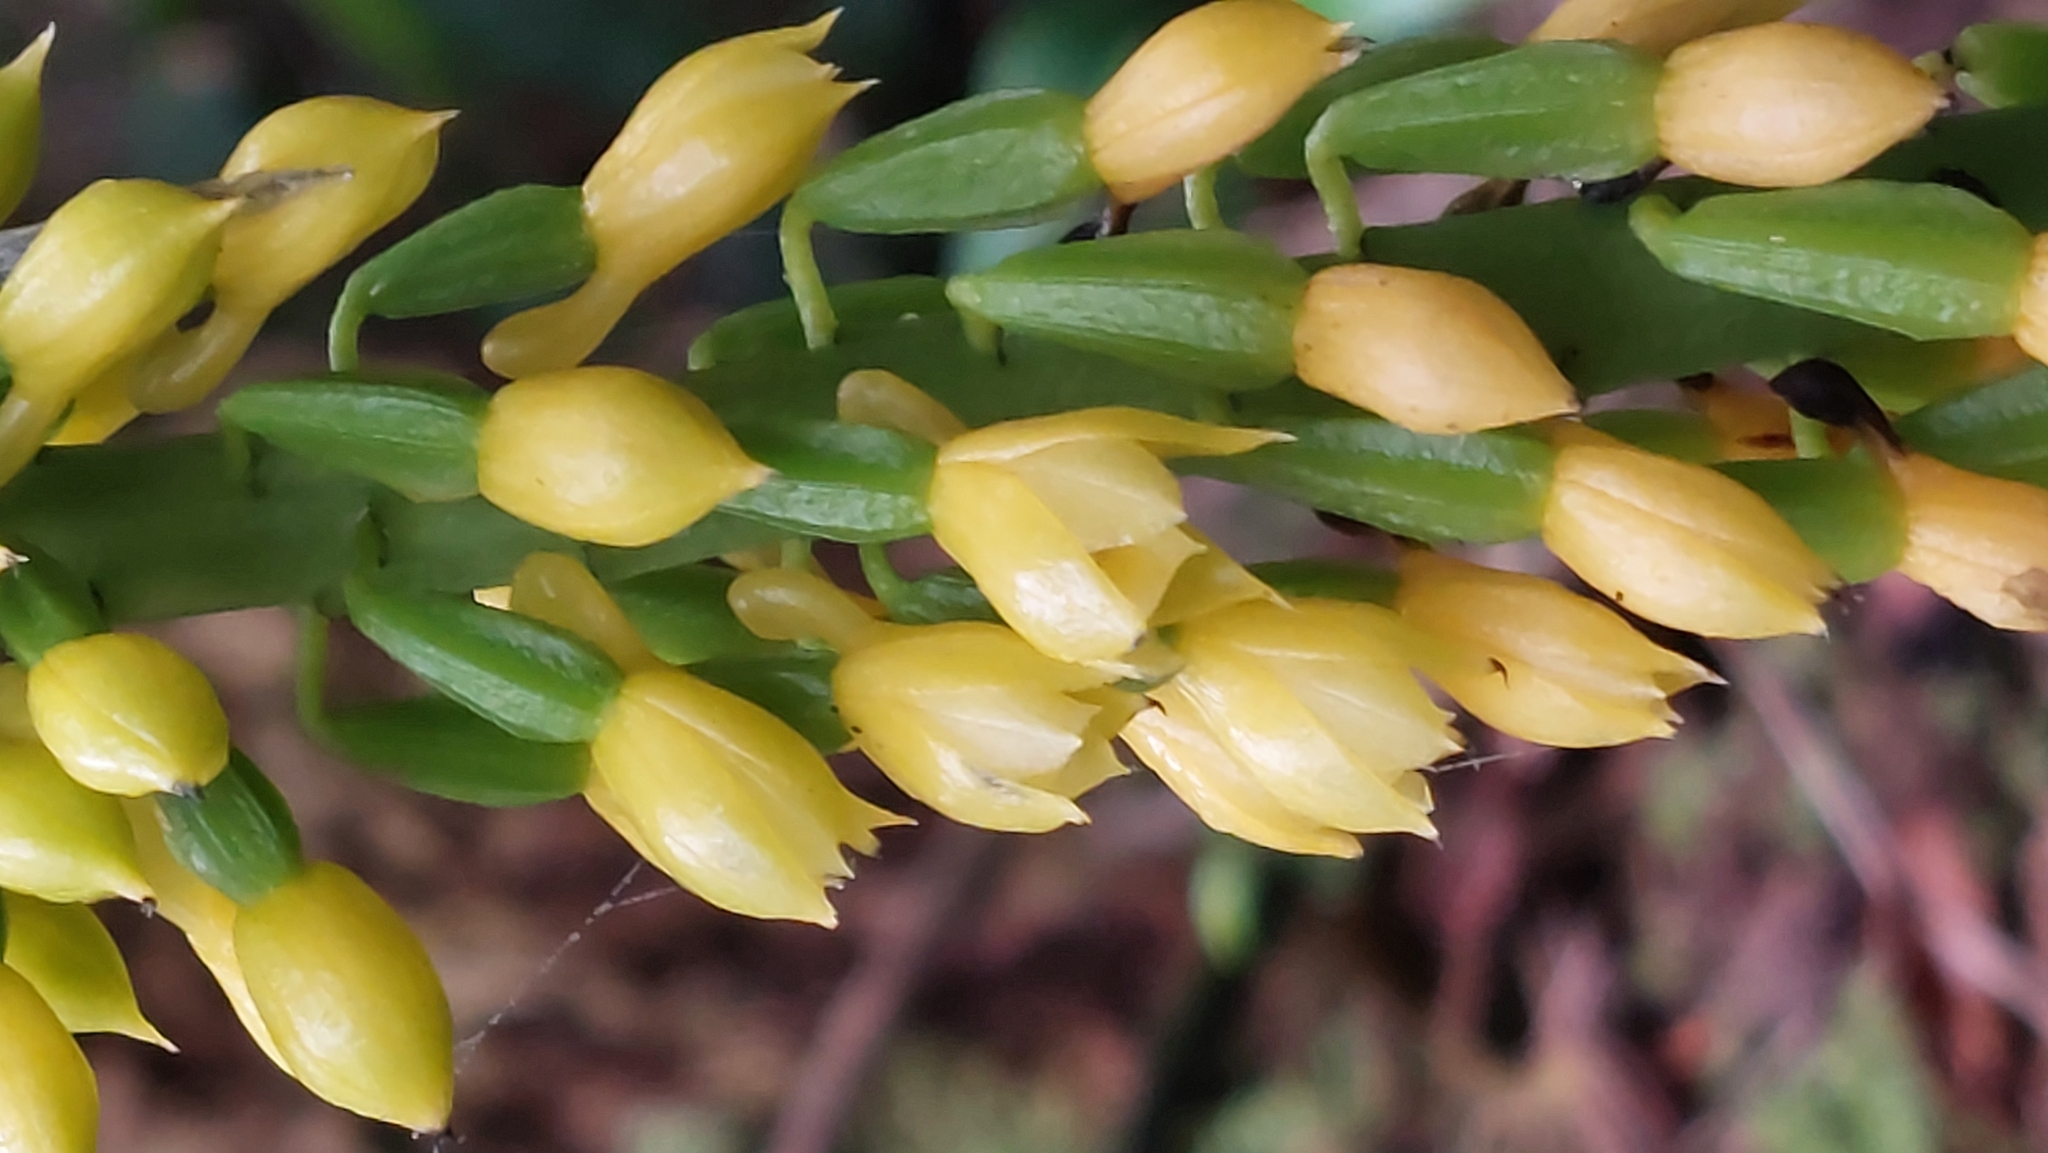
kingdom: Plantae
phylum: Tracheophyta
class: Liliopsida
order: Asparagales
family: Orchidaceae
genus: Calanthe
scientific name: Calanthe lyroglossa
